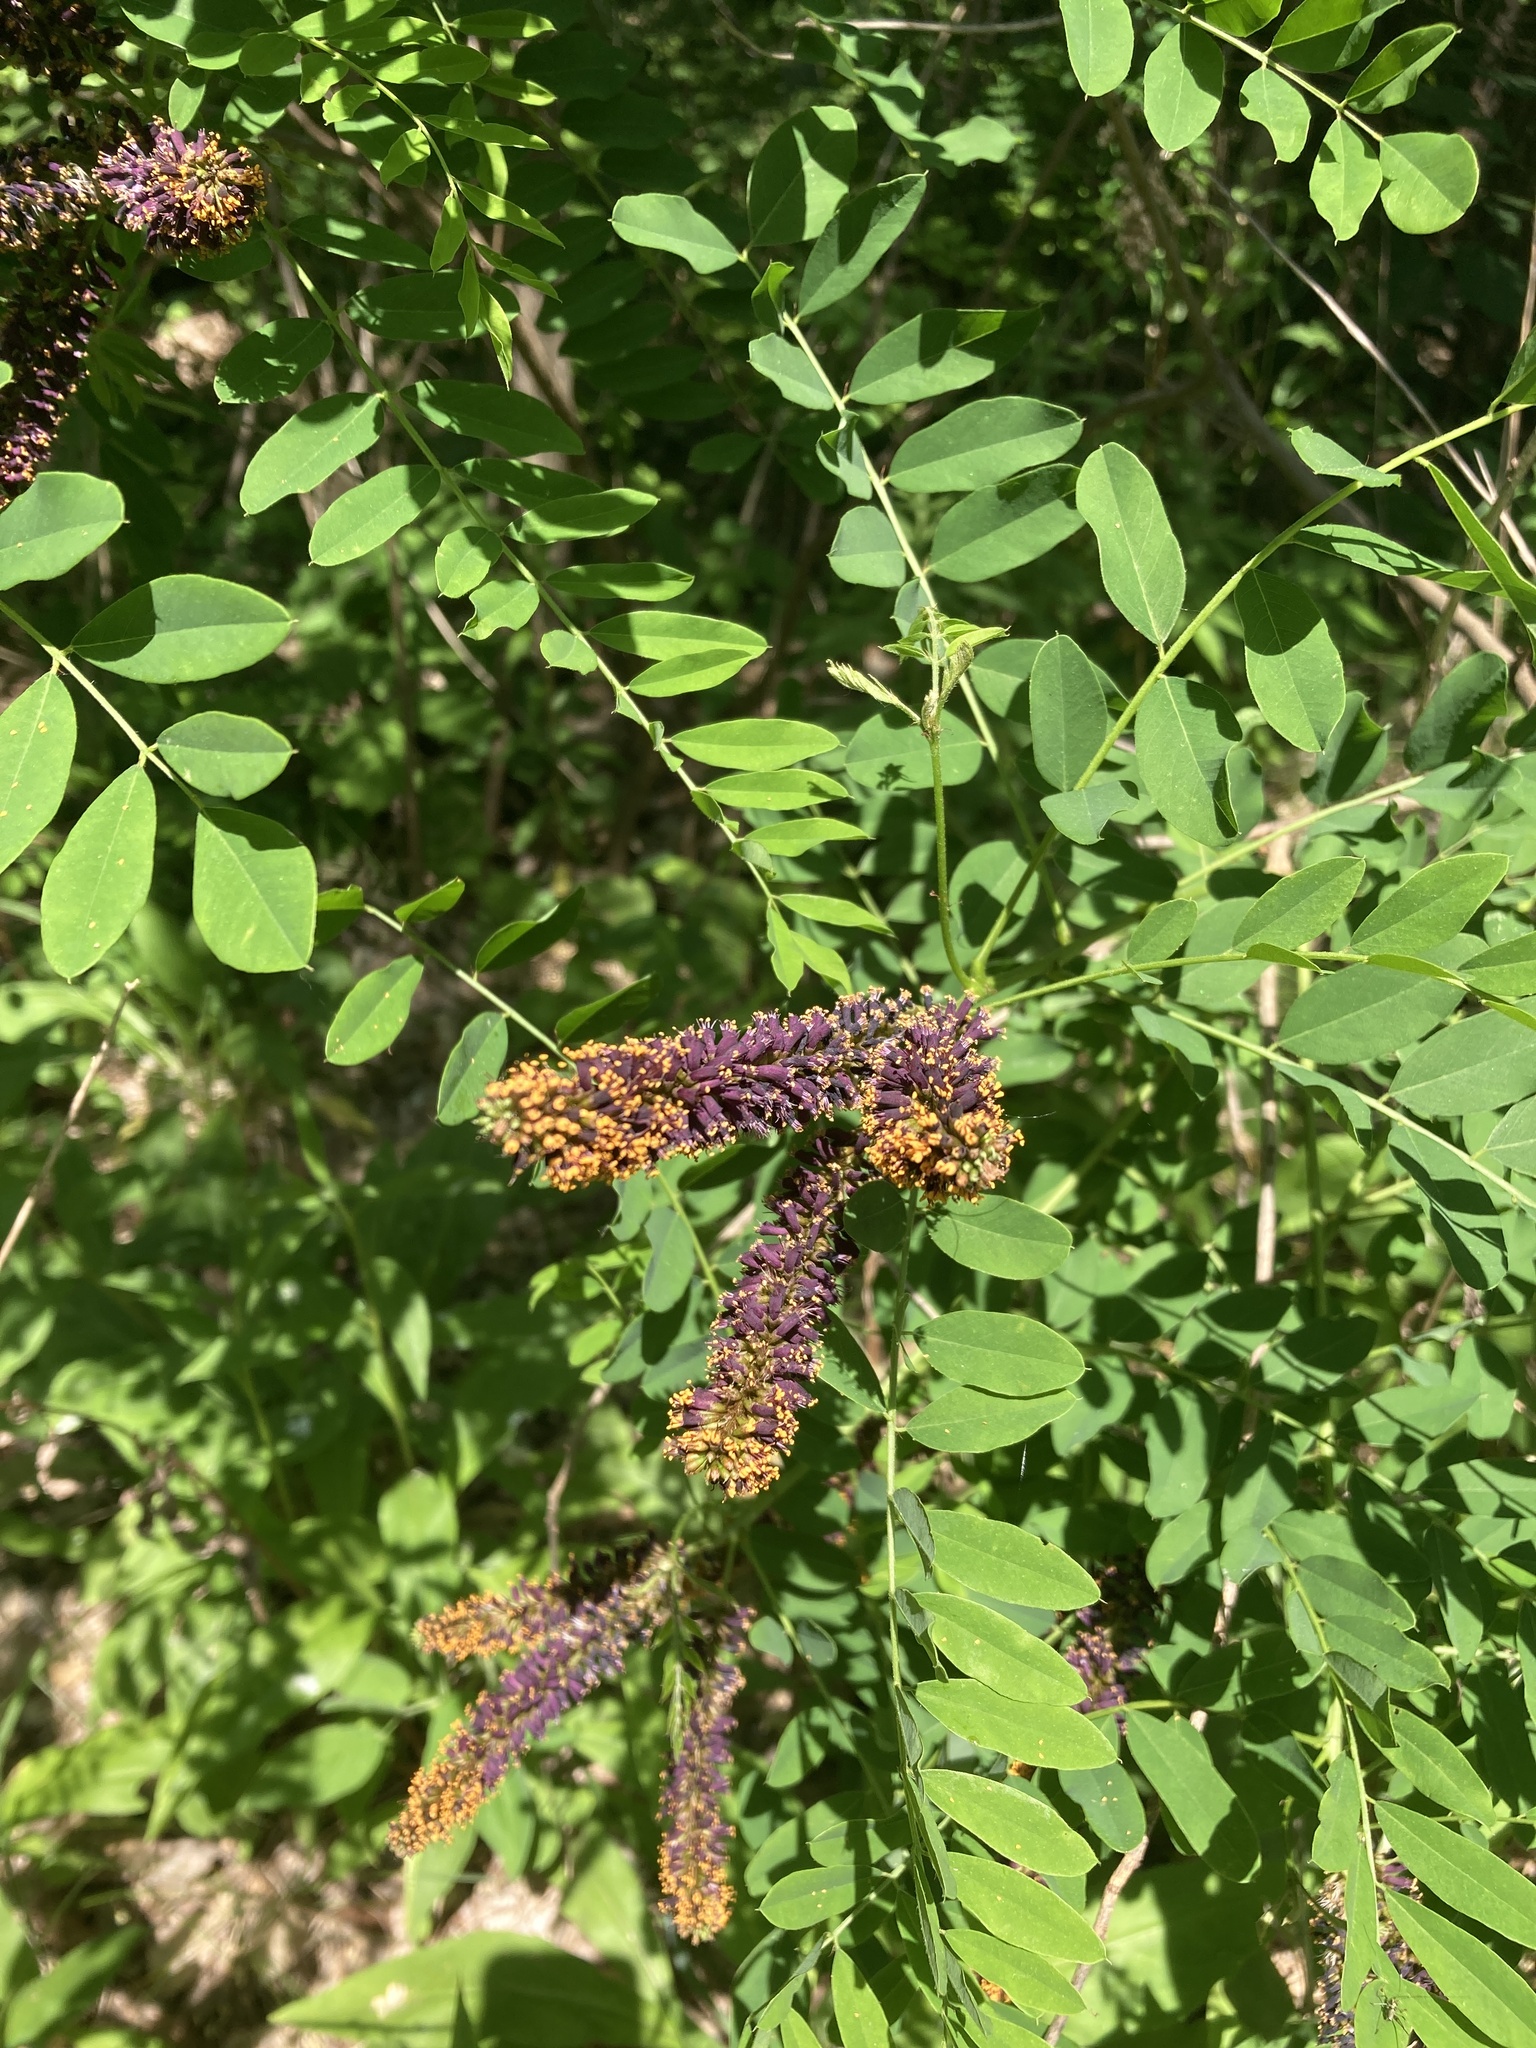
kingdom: Plantae
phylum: Tracheophyta
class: Magnoliopsida
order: Fabales
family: Fabaceae
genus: Amorpha
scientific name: Amorpha fruticosa
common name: False indigo
